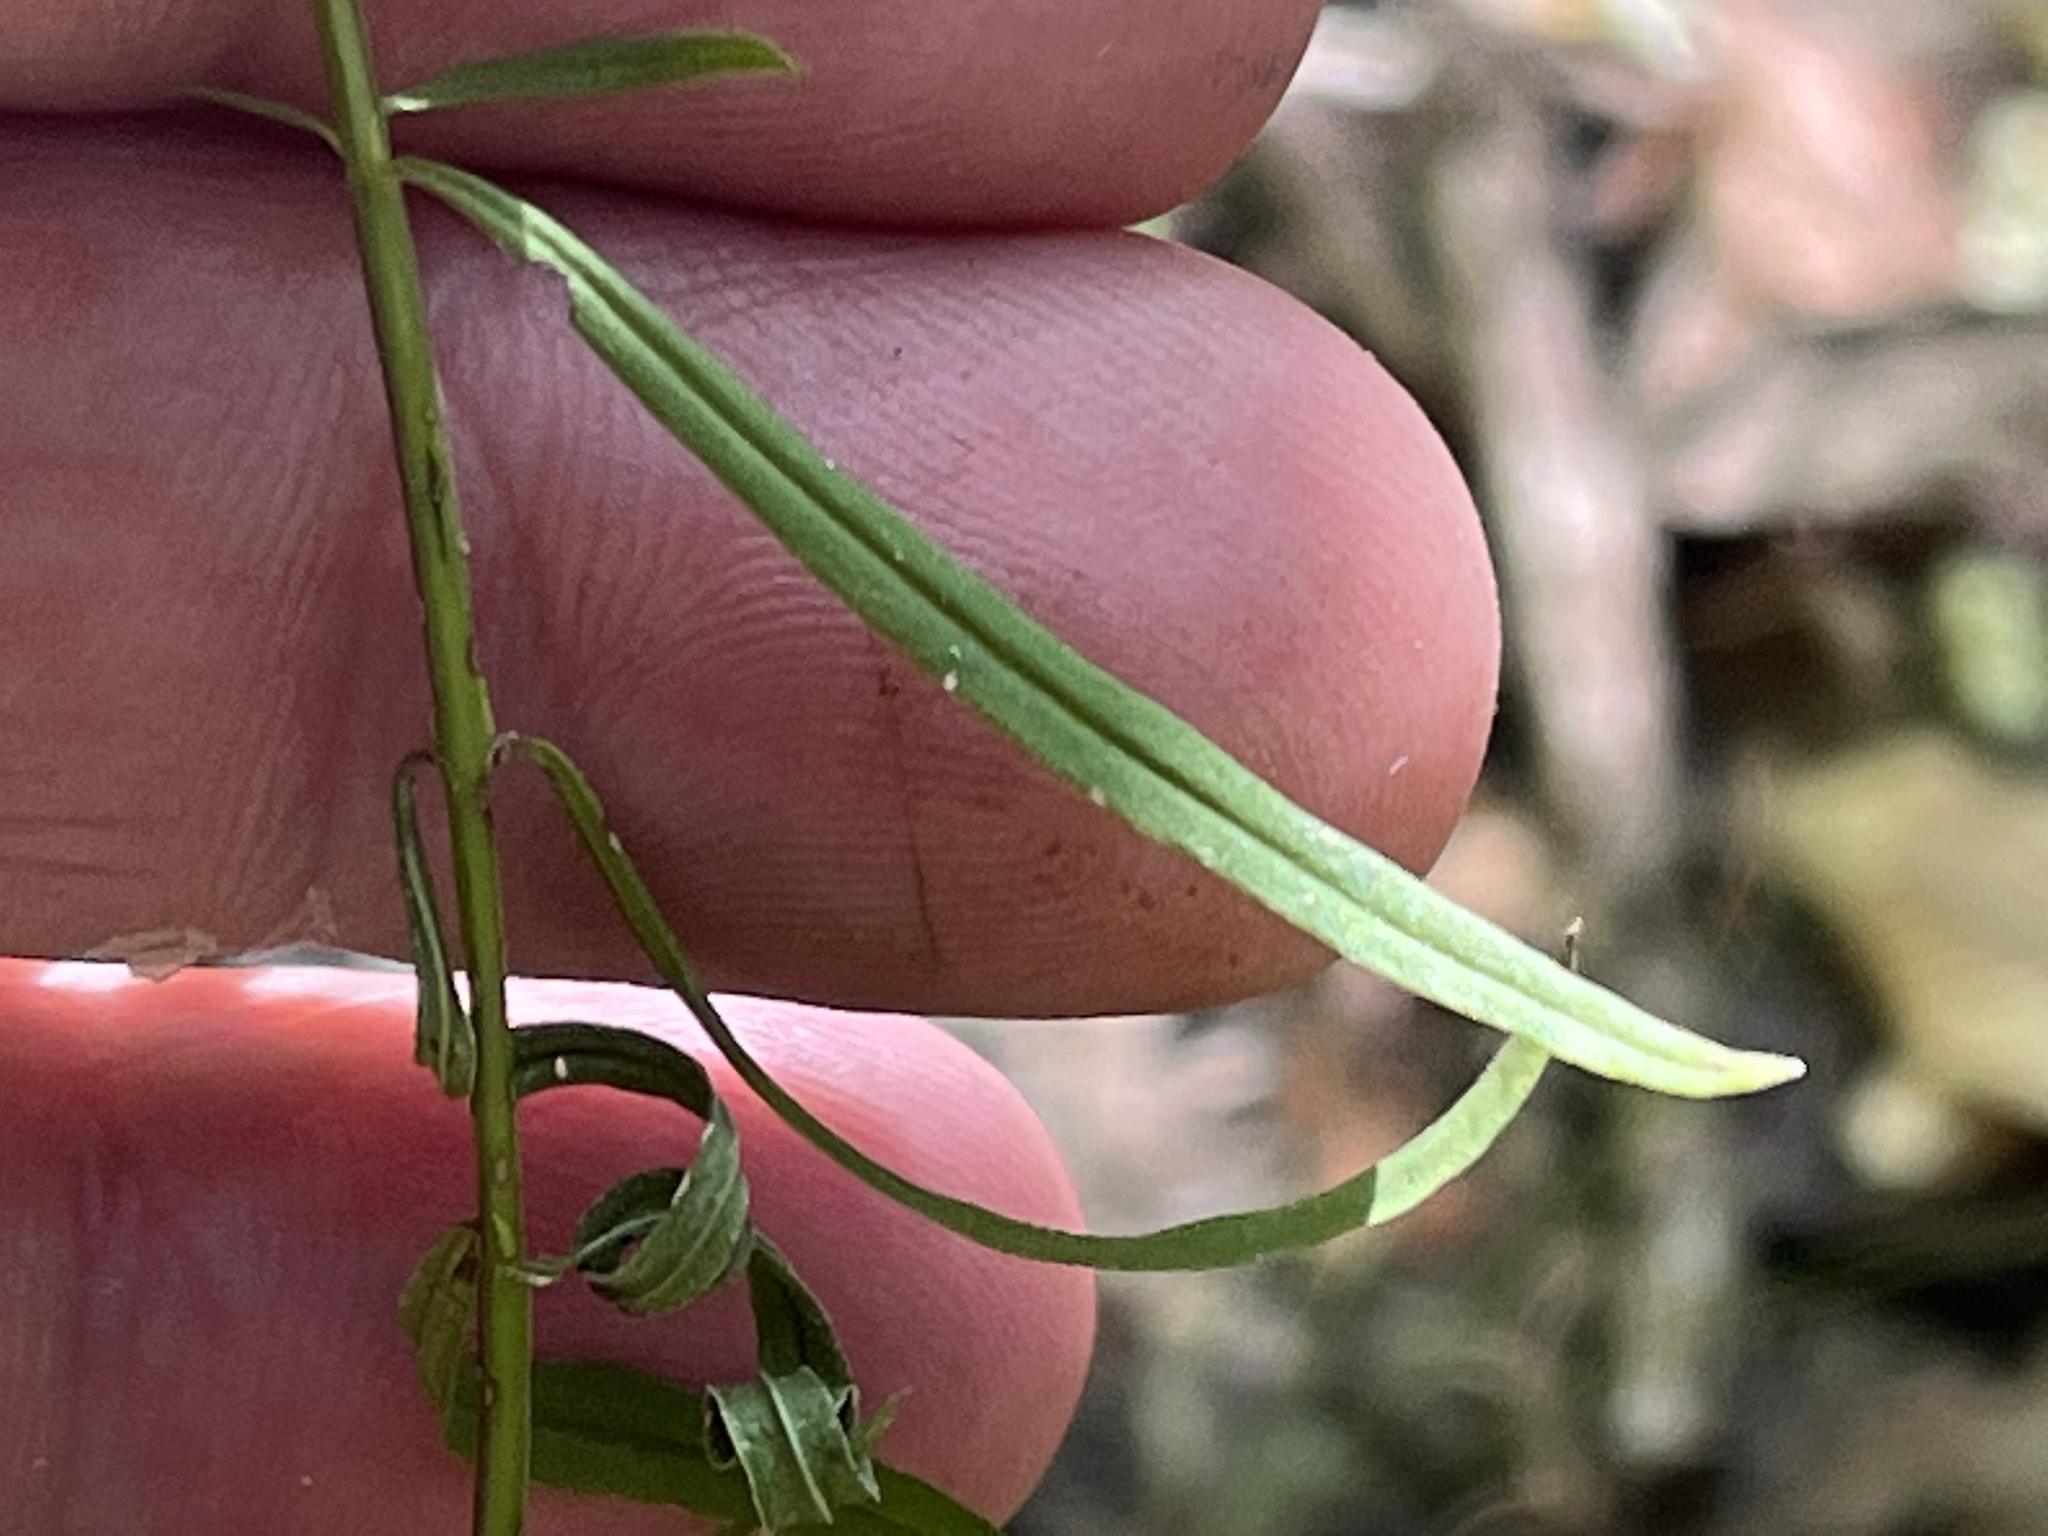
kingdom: Plantae
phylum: Tracheophyta
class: Magnoliopsida
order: Lamiales
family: Orobanchaceae
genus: Agalinis
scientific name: Agalinis tenuifolia
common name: Slender agalinis
